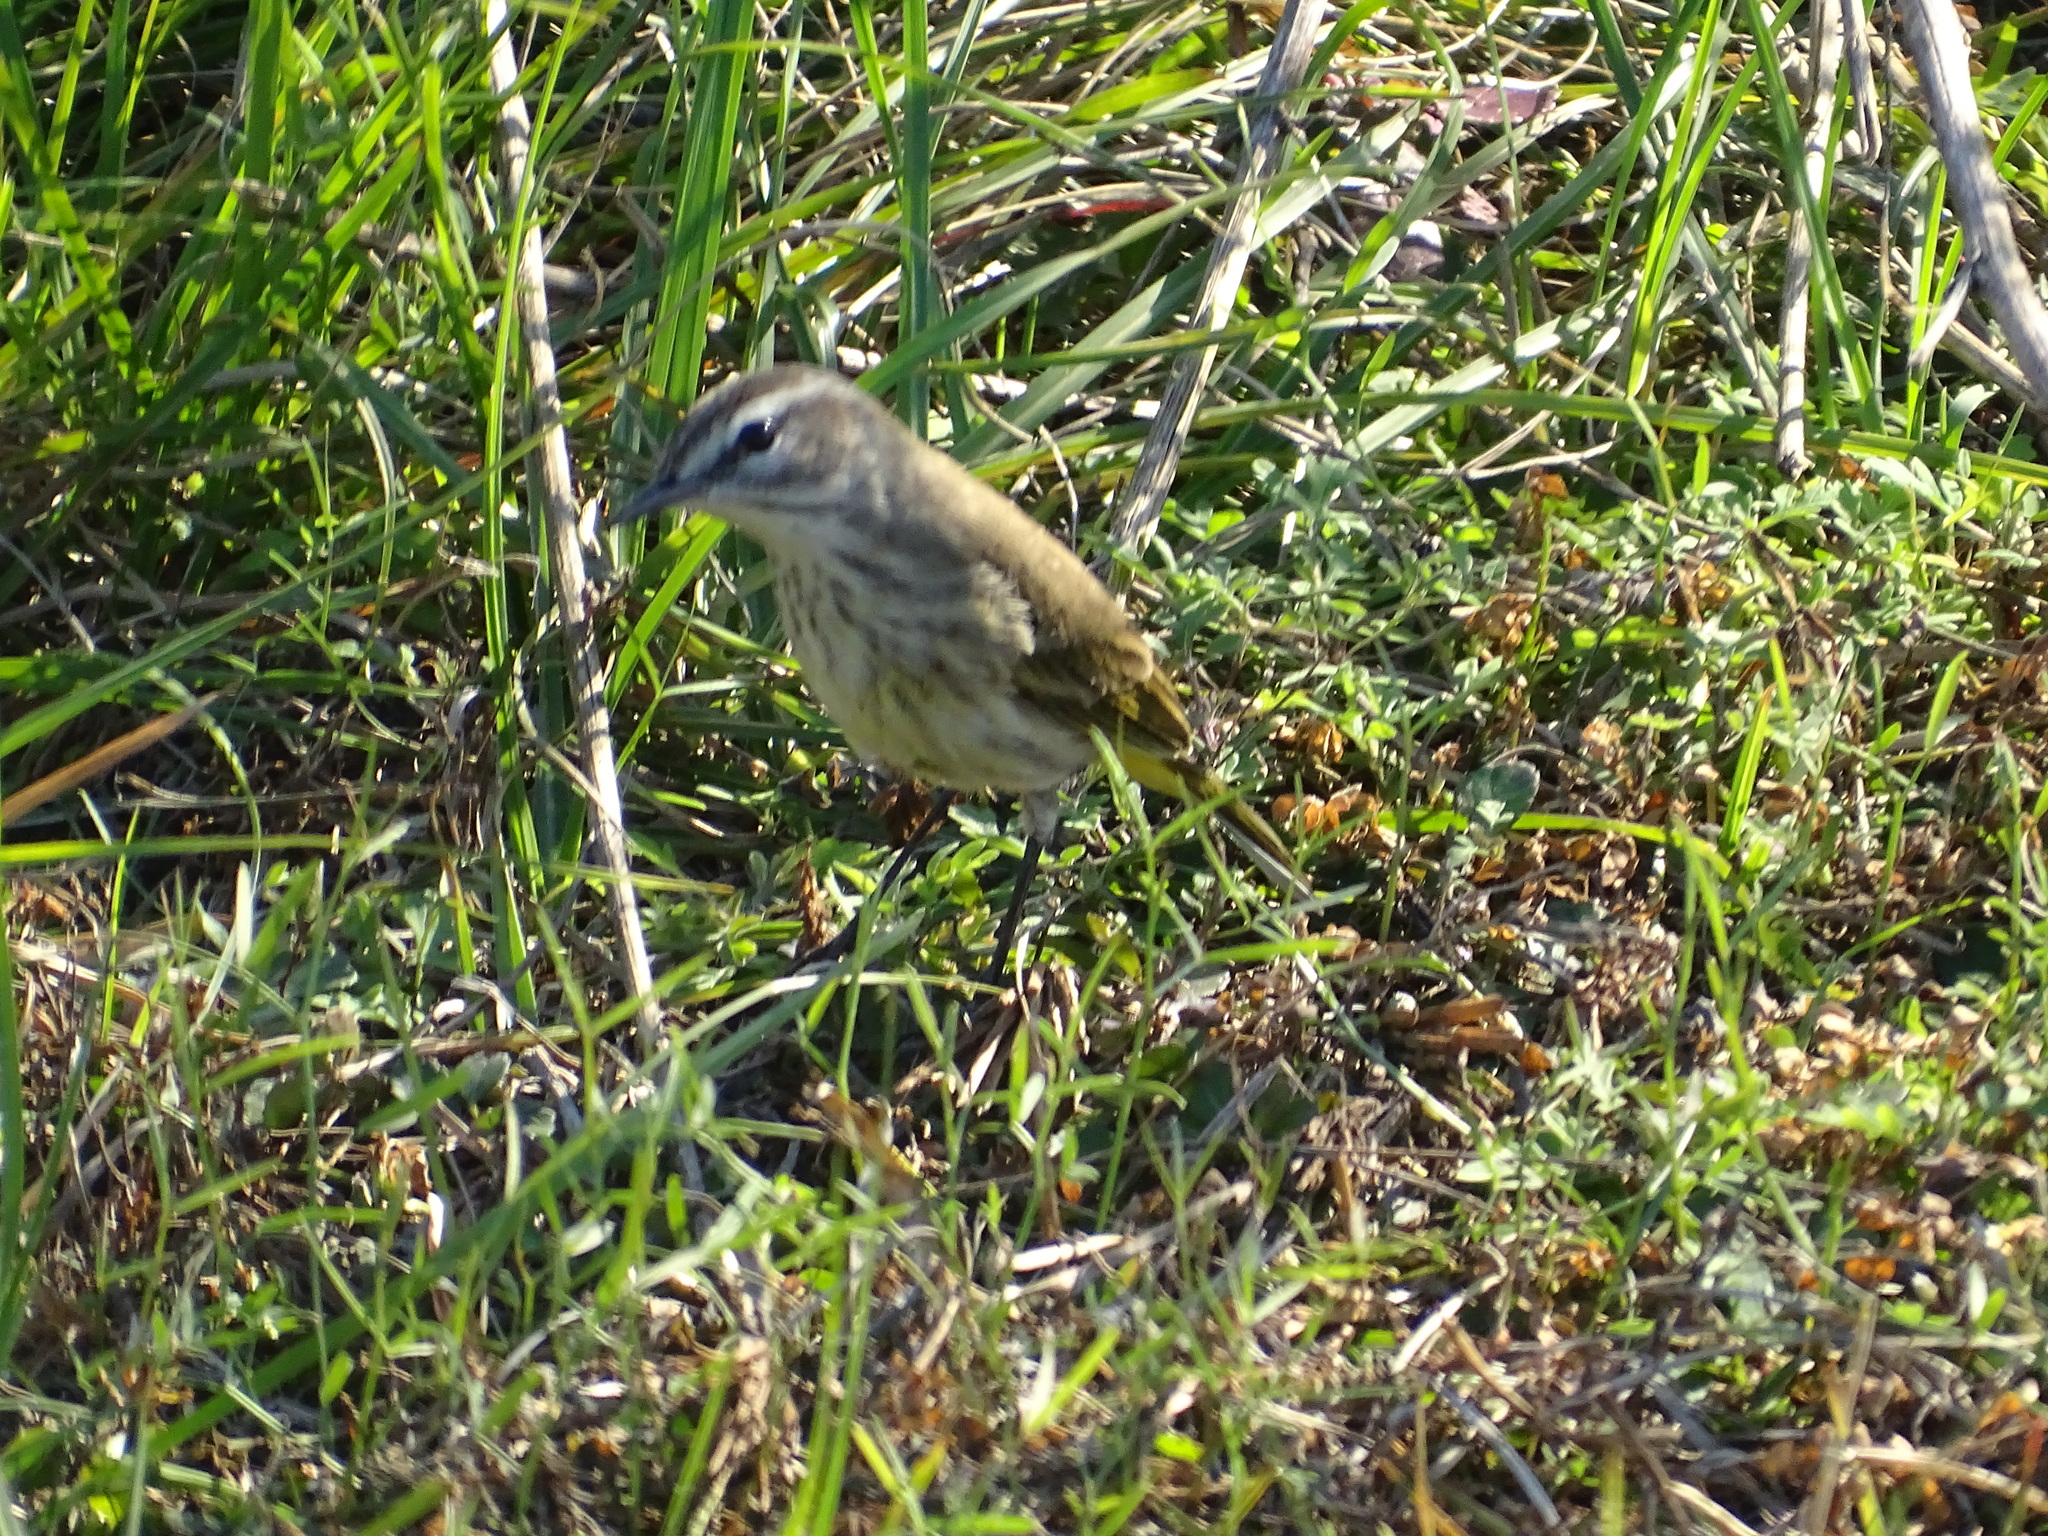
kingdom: Animalia
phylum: Chordata
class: Aves
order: Passeriformes
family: Parulidae
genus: Setophaga
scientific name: Setophaga palmarum
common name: Palm warbler
